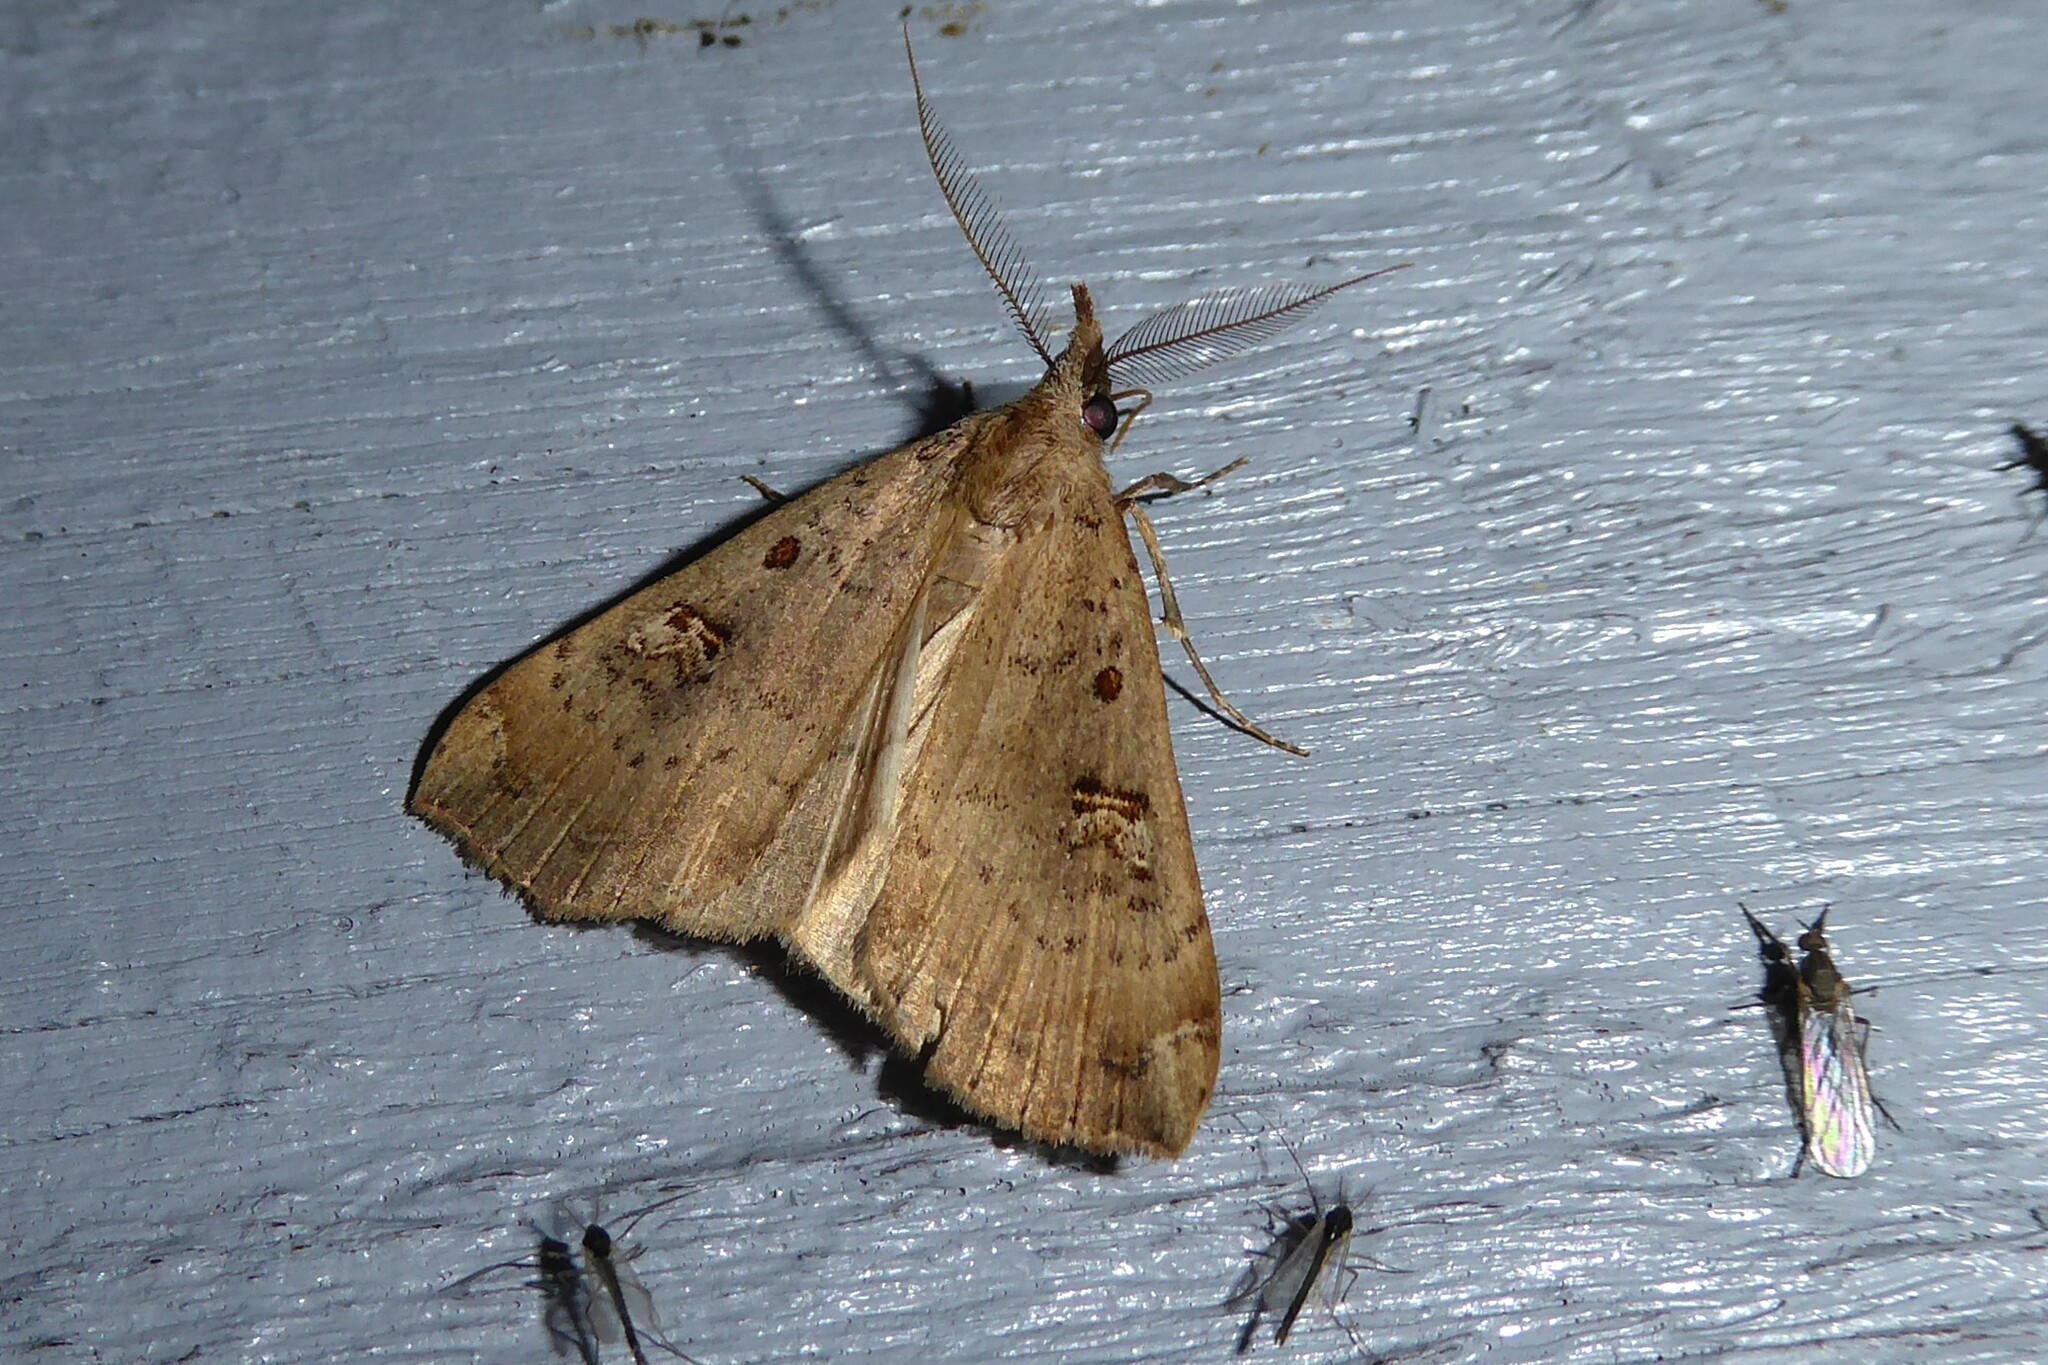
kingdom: Animalia
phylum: Arthropoda
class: Insecta
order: Lepidoptera
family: Erebidae
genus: Rhapsa
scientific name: Rhapsa scotosialis
